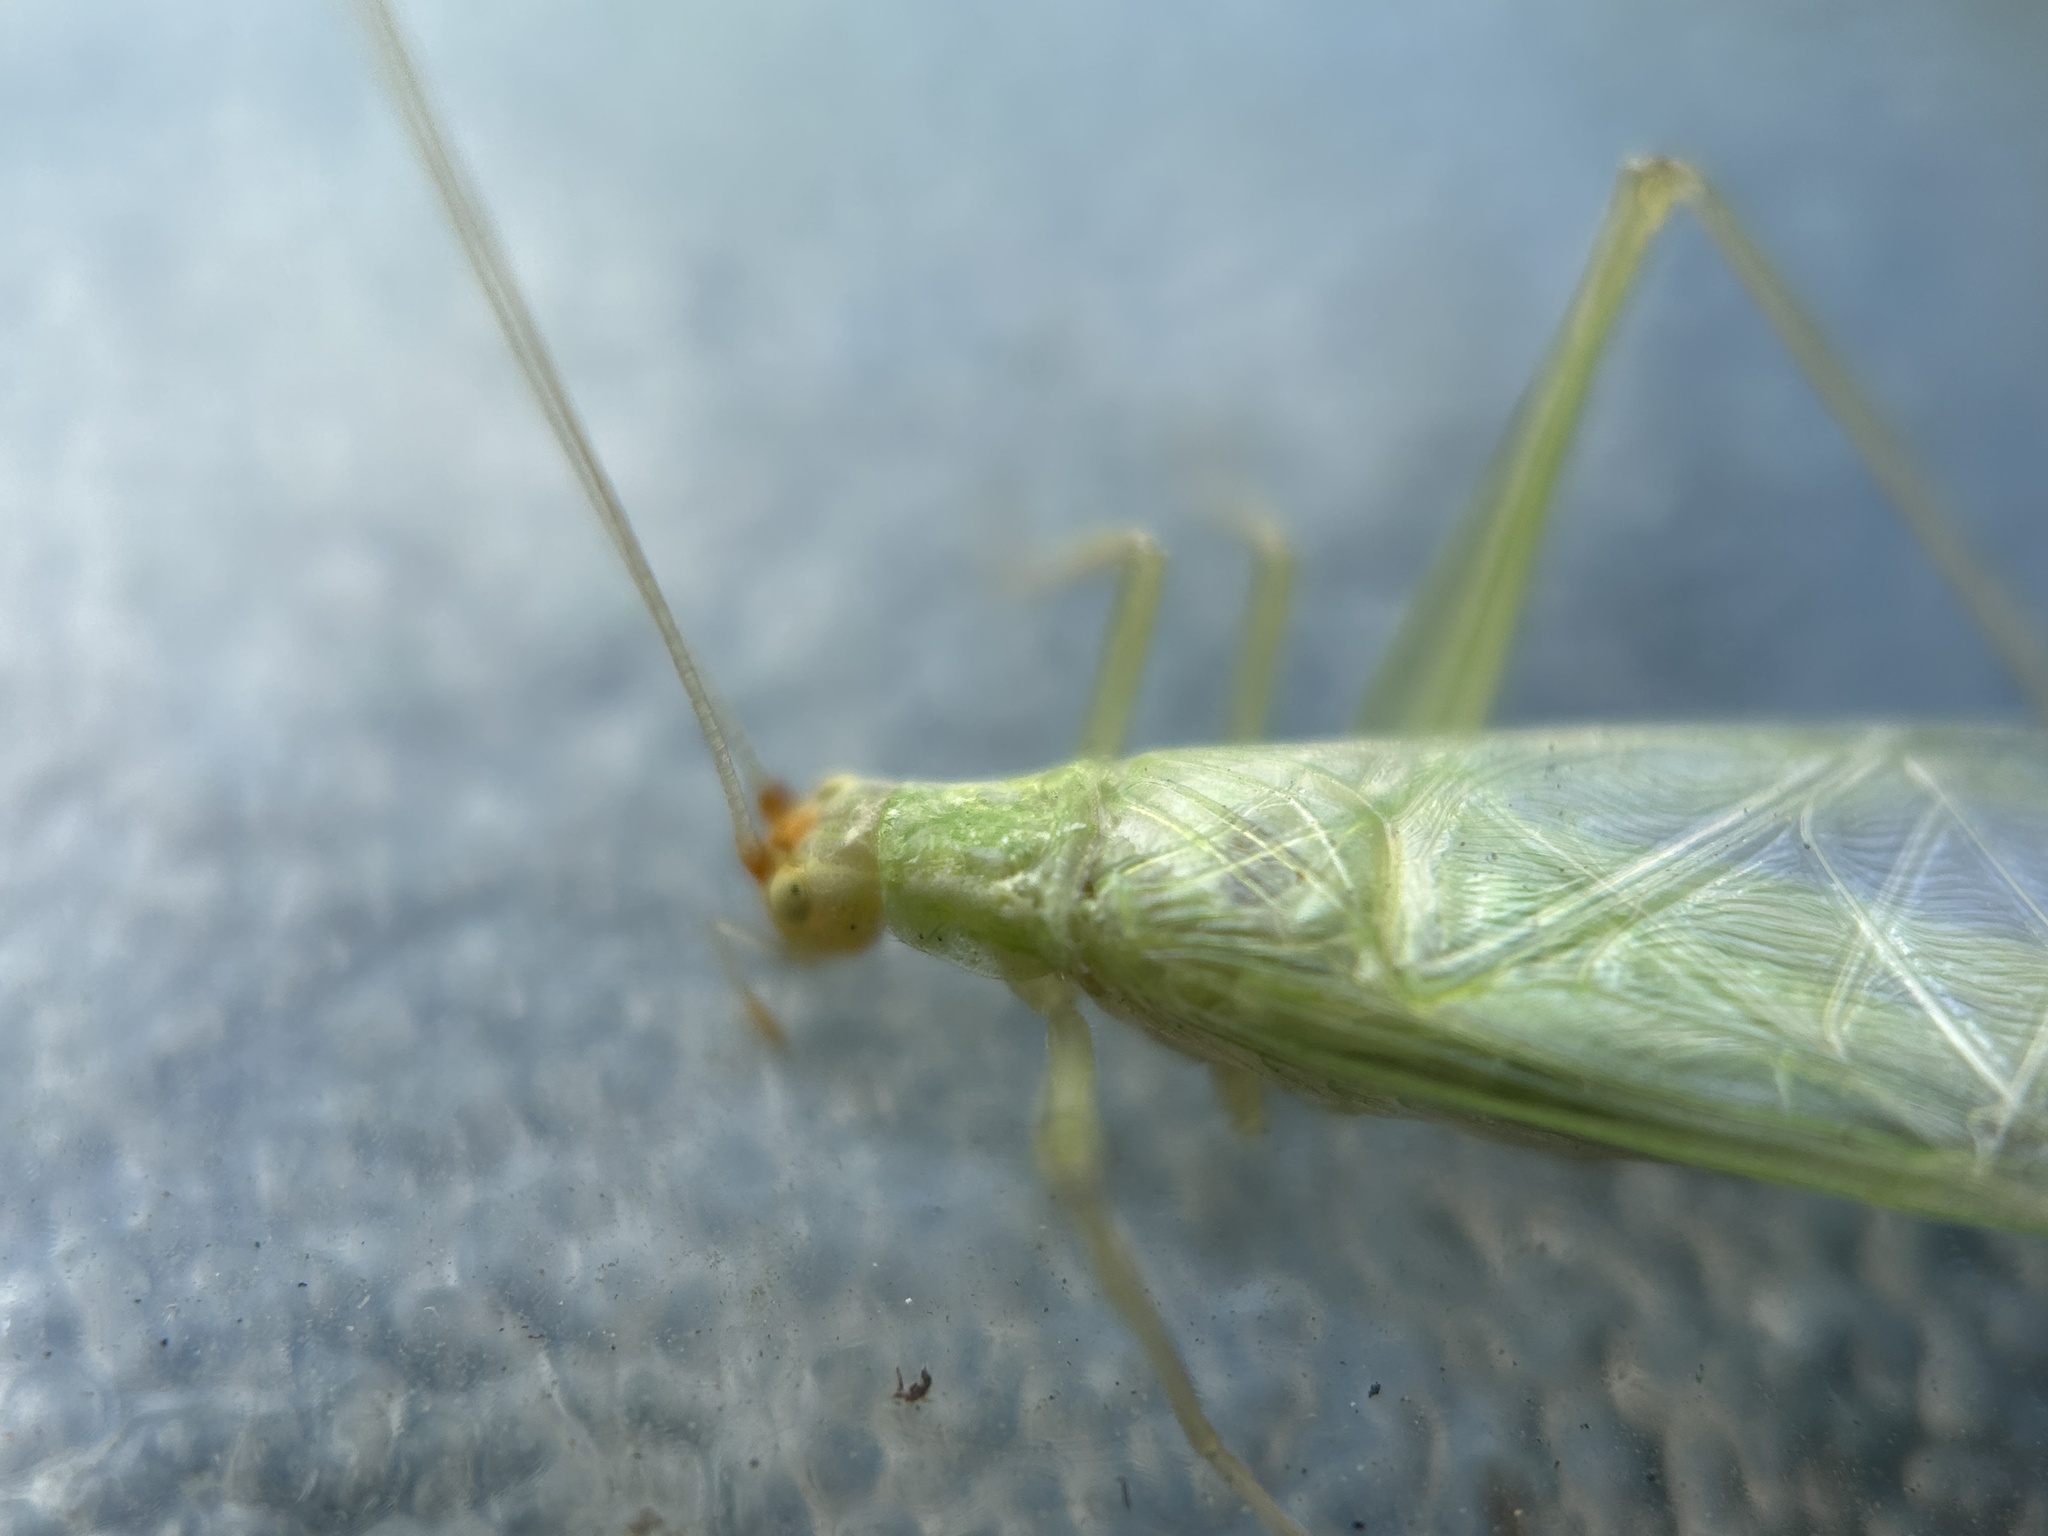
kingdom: Animalia
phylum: Arthropoda
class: Insecta
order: Orthoptera
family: Gryllidae
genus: Oecanthus
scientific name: Oecanthus fultoni
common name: Snowy tree cricket
